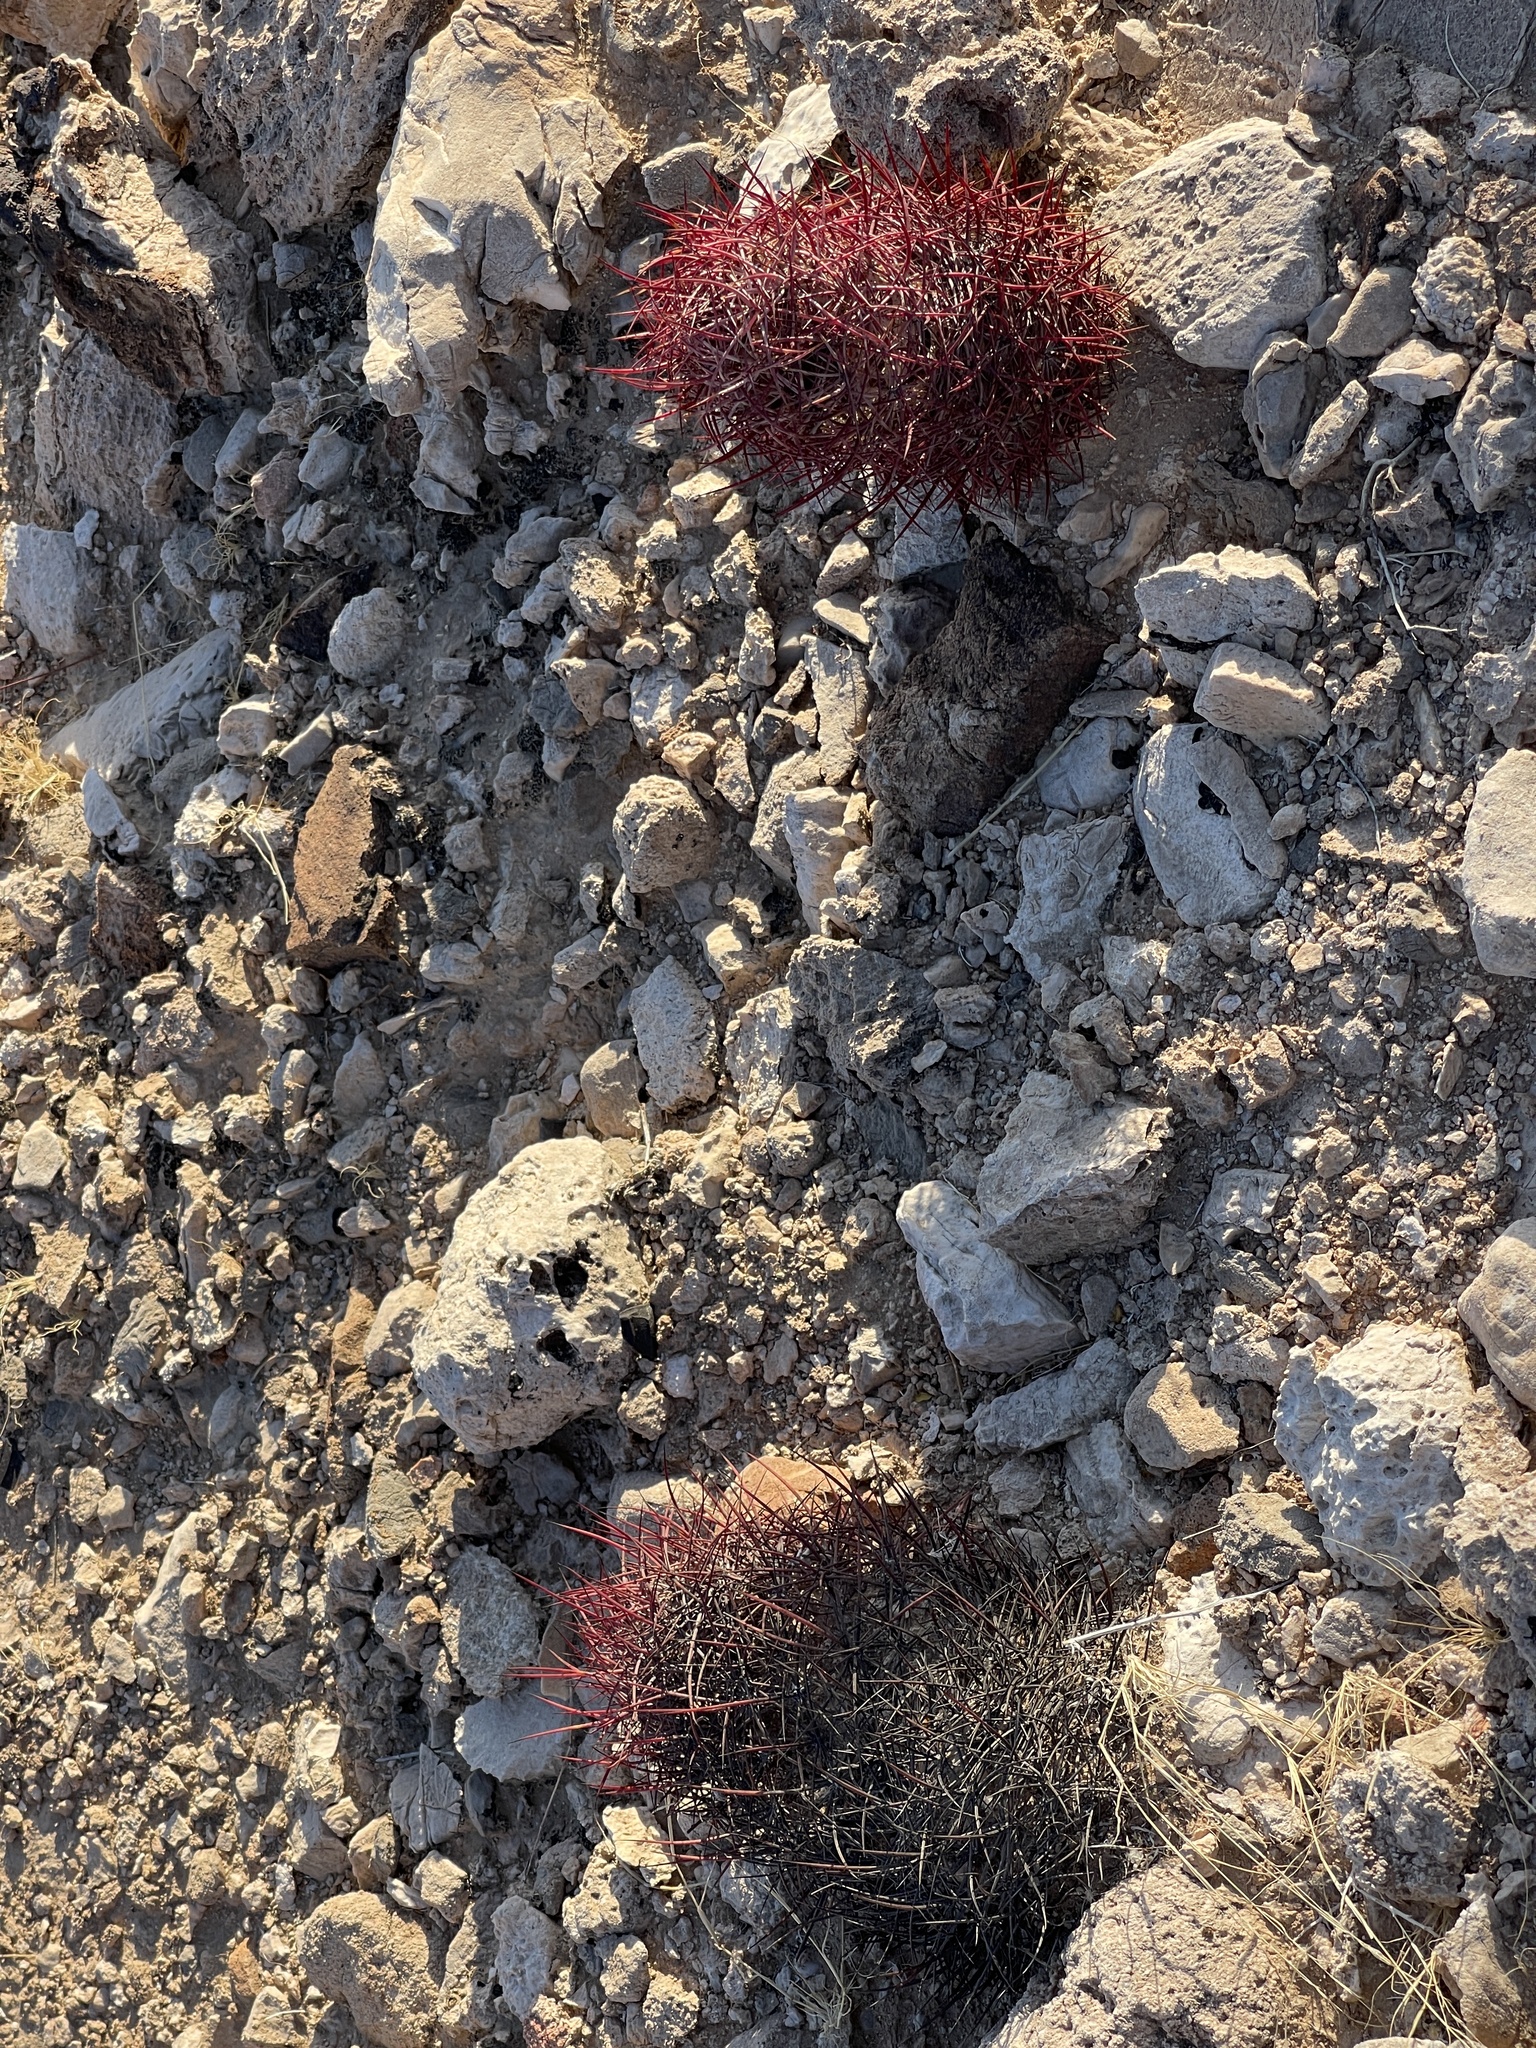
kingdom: Plantae
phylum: Tracheophyta
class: Magnoliopsida
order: Caryophyllales
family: Cactaceae
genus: Sclerocactus
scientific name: Sclerocactus johnsonii
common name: Eight-spine fishhook cactus
